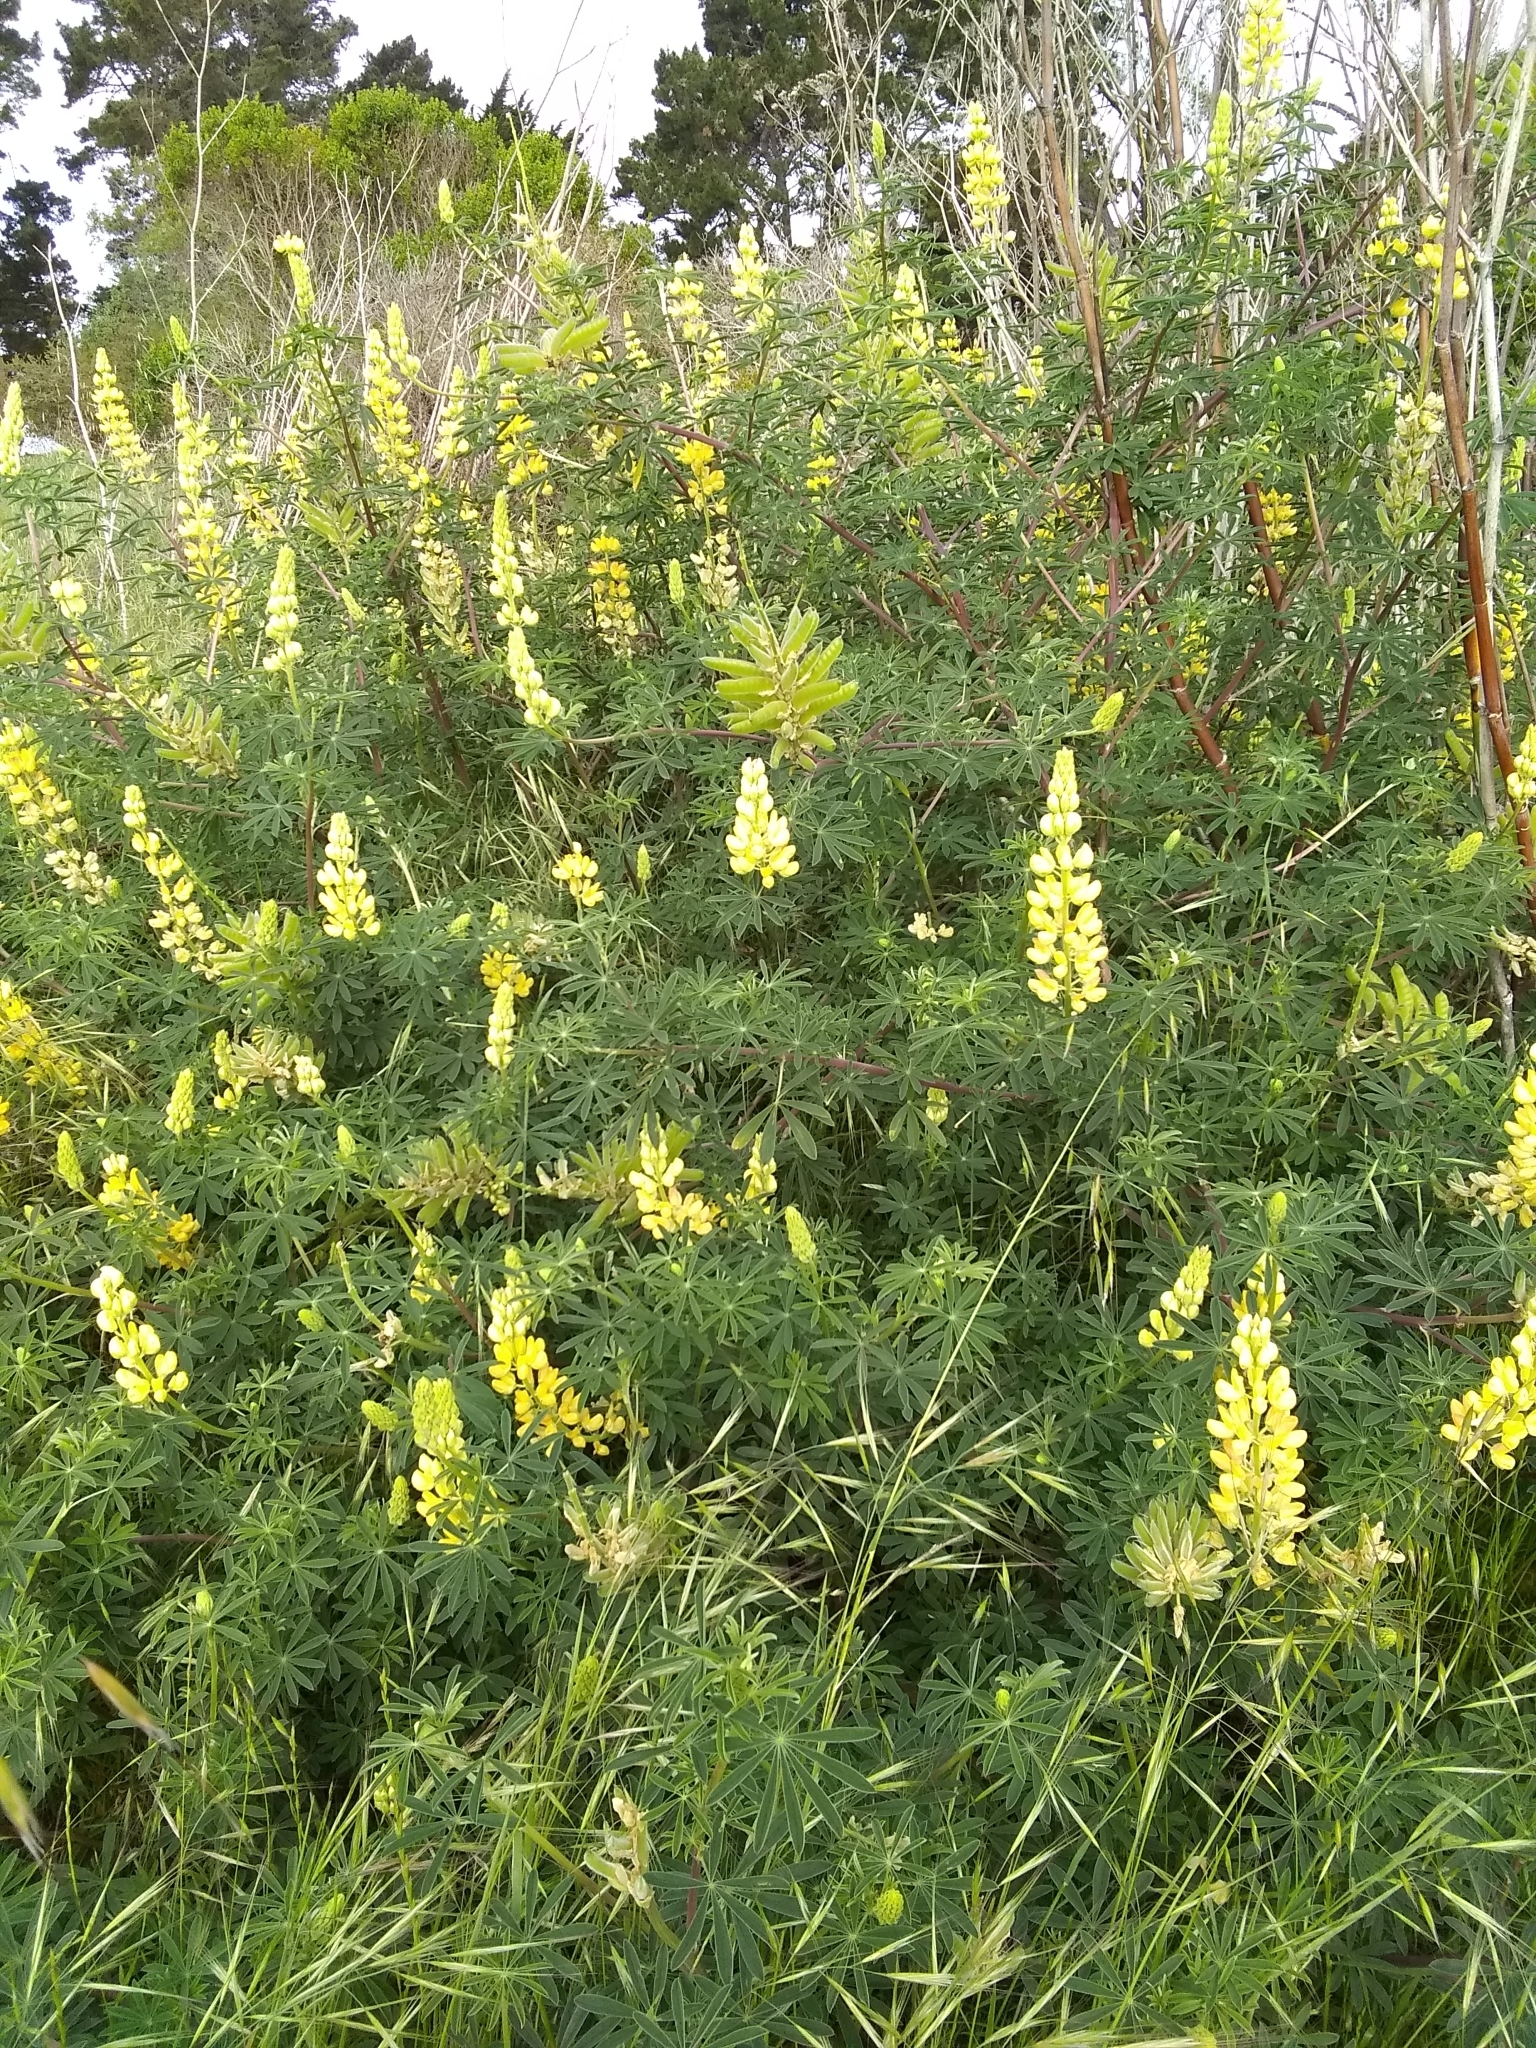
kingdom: Plantae
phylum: Tracheophyta
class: Magnoliopsida
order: Fabales
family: Fabaceae
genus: Lupinus
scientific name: Lupinus arboreus
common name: Yellow bush lupine
